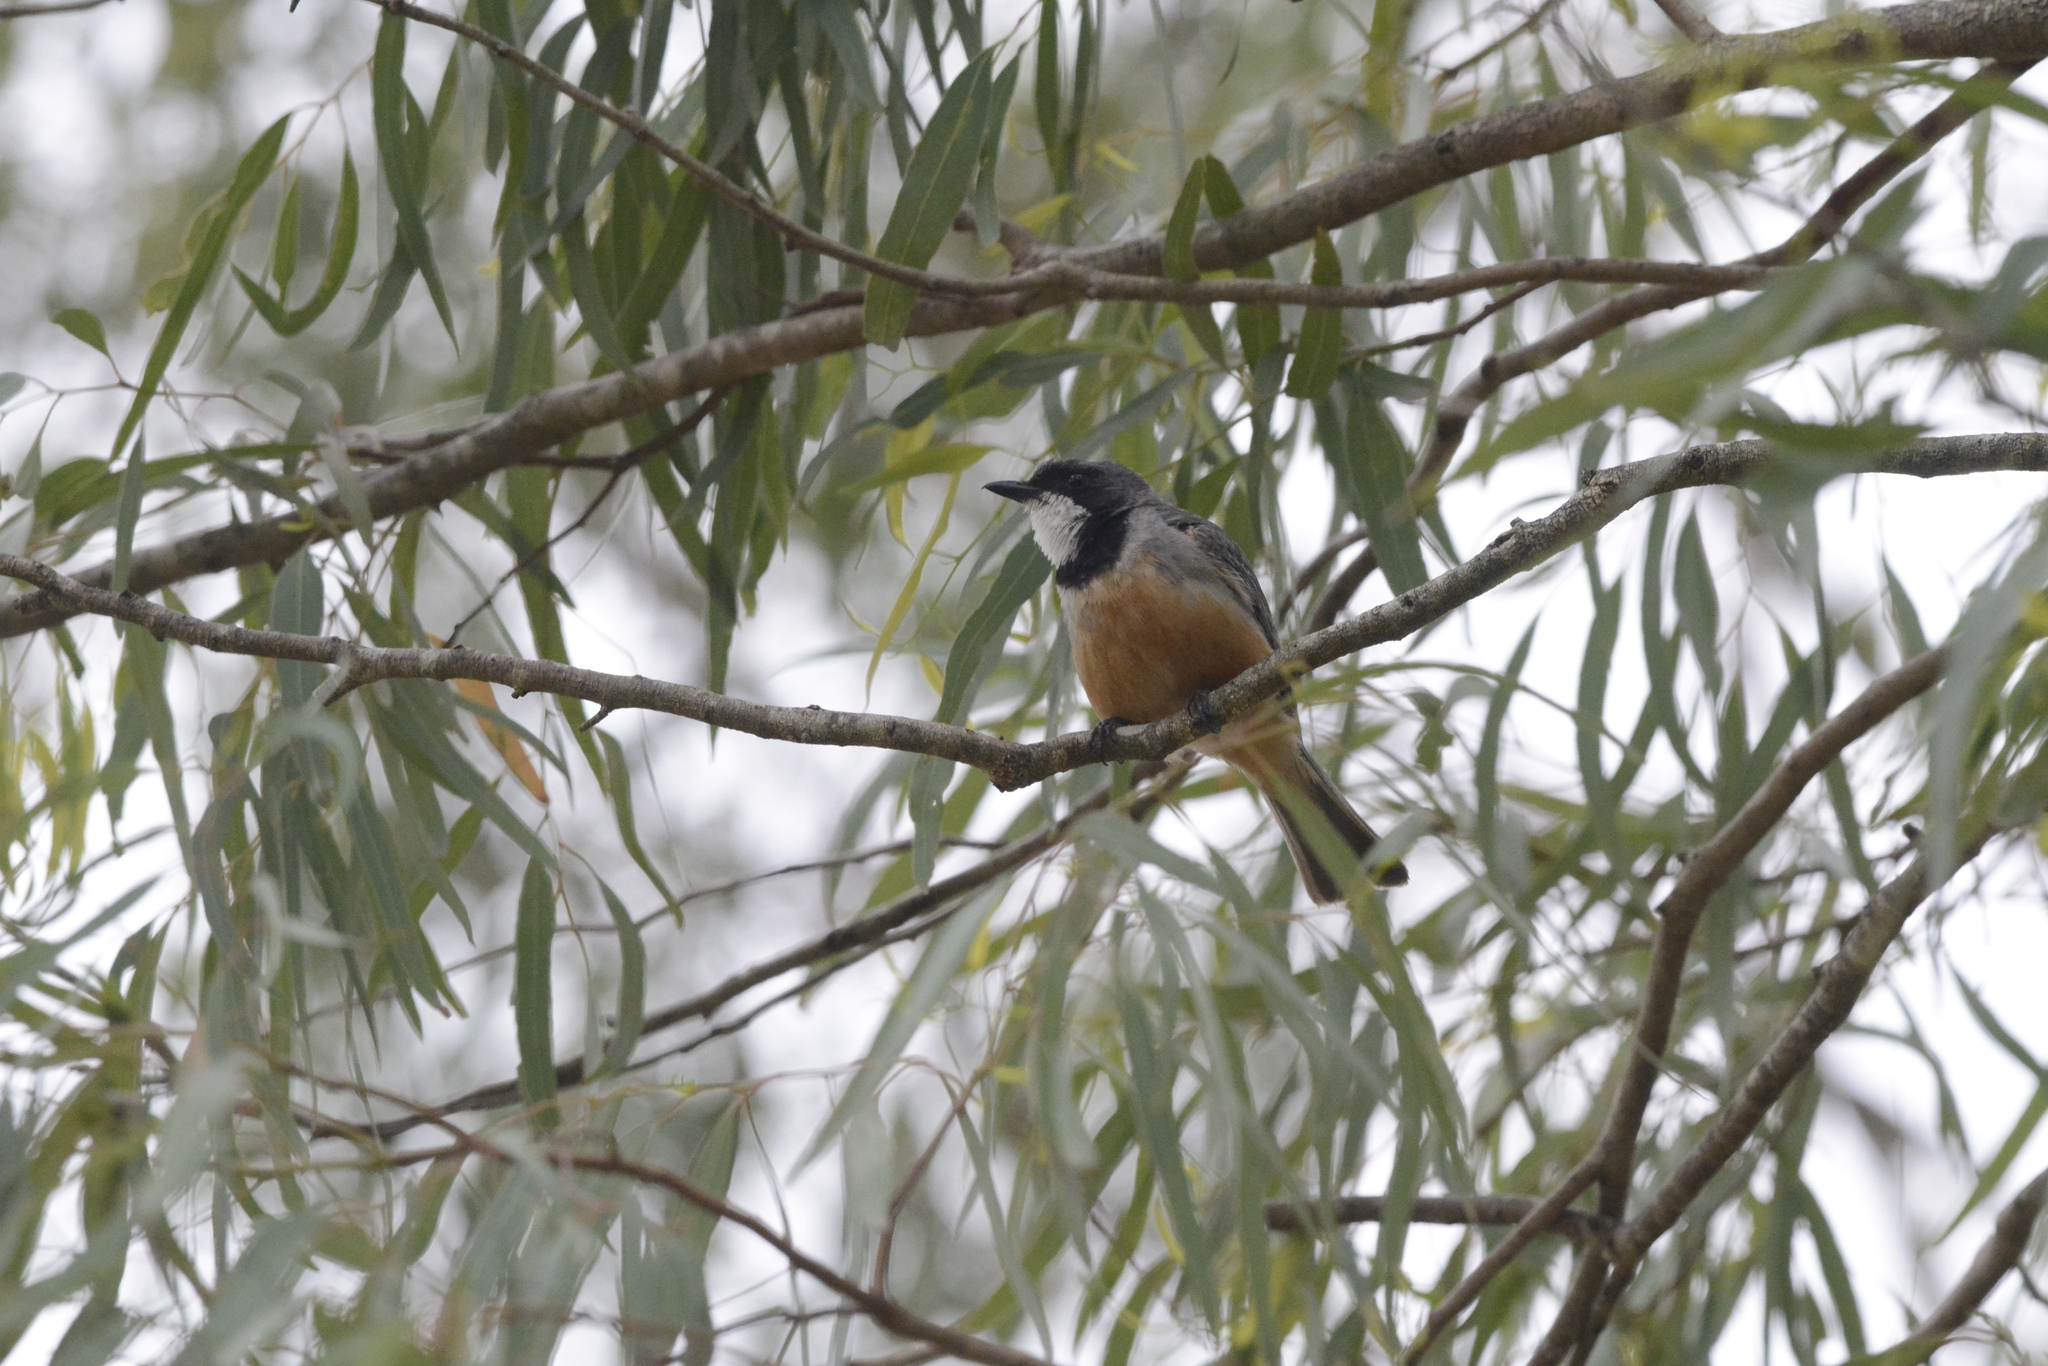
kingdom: Animalia
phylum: Chordata
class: Aves
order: Passeriformes
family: Pachycephalidae
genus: Pachycephala
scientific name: Pachycephala rufiventris
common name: Rufous whistler
